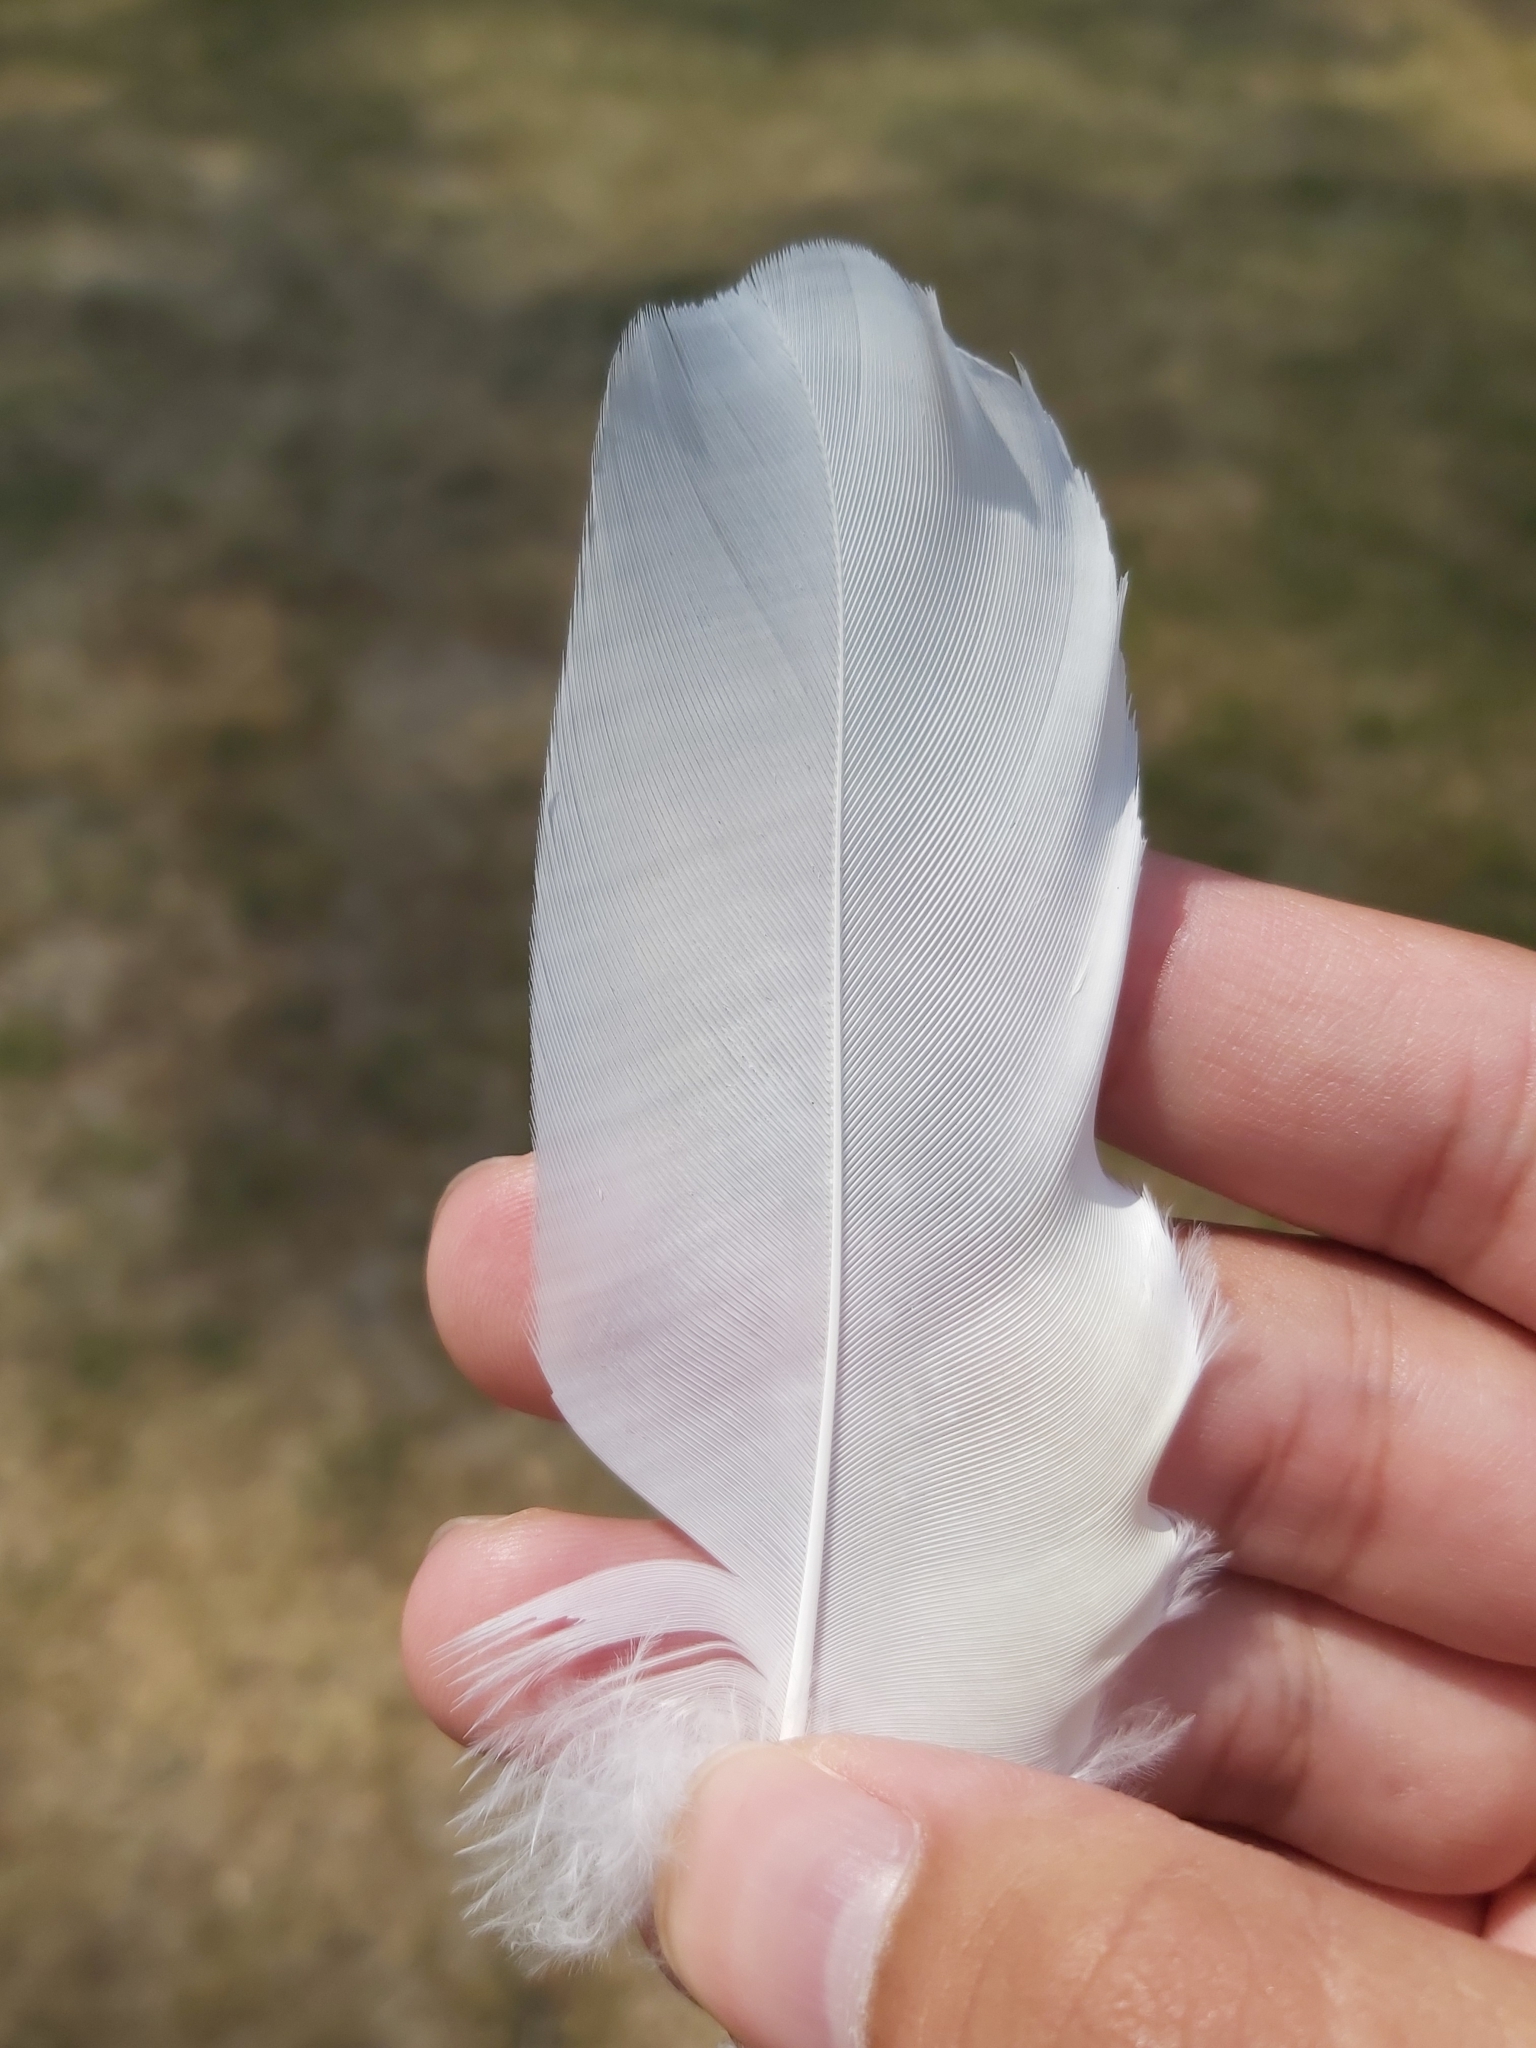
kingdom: Animalia
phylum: Chordata
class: Aves
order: Psittaciformes
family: Psittacidae
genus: Cacatua
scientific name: Cacatua galerita
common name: Sulphur-crested cockatoo
